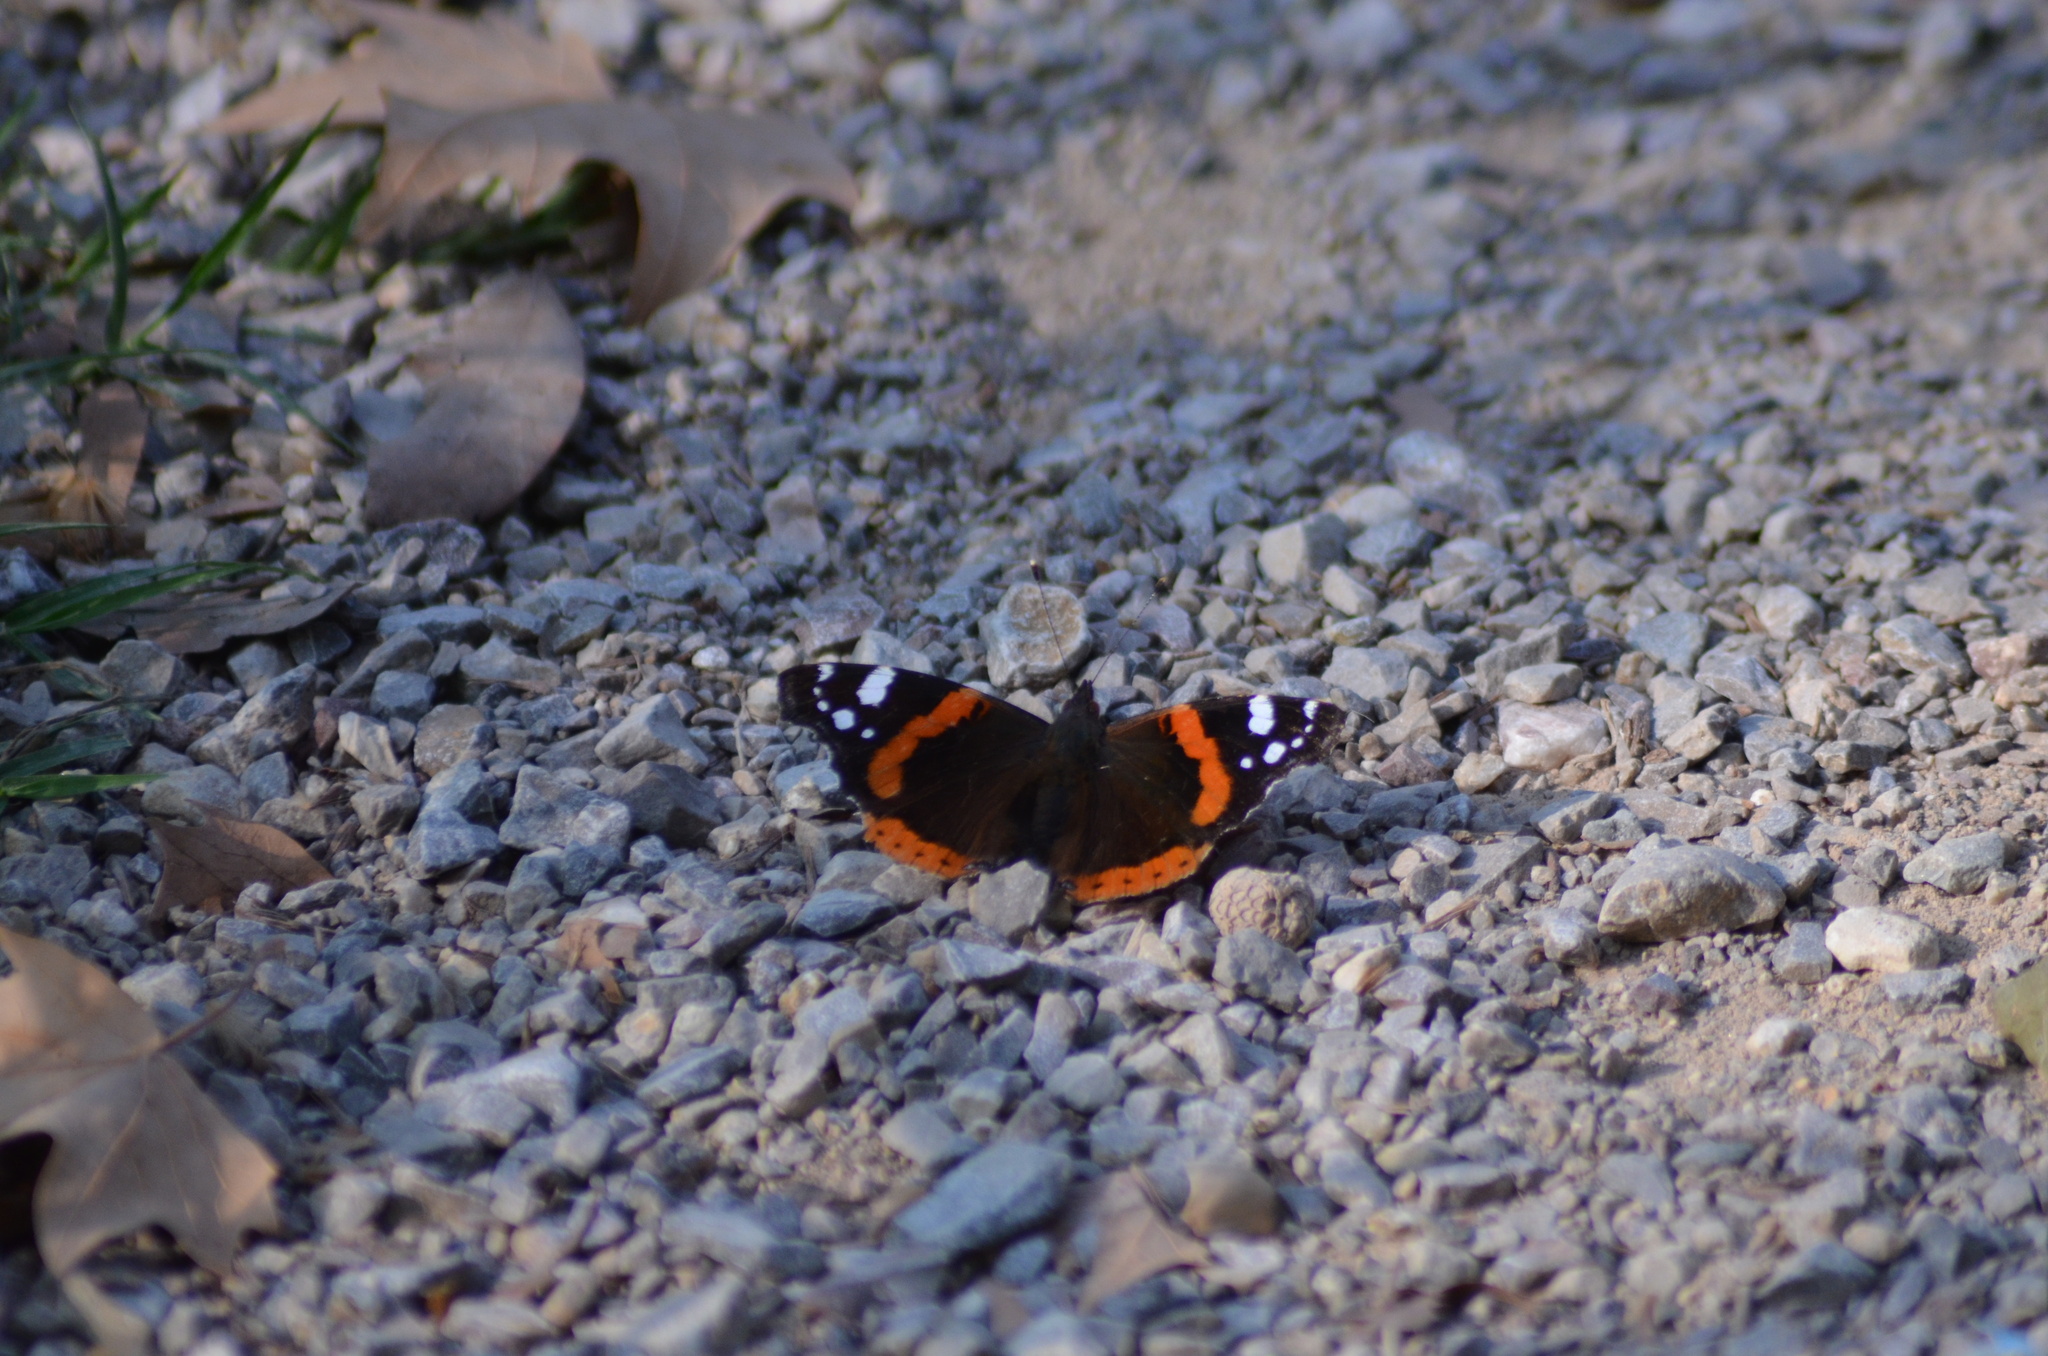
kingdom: Animalia
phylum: Arthropoda
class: Insecta
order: Lepidoptera
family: Nymphalidae
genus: Vanessa
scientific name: Vanessa atalanta
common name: Red admiral
